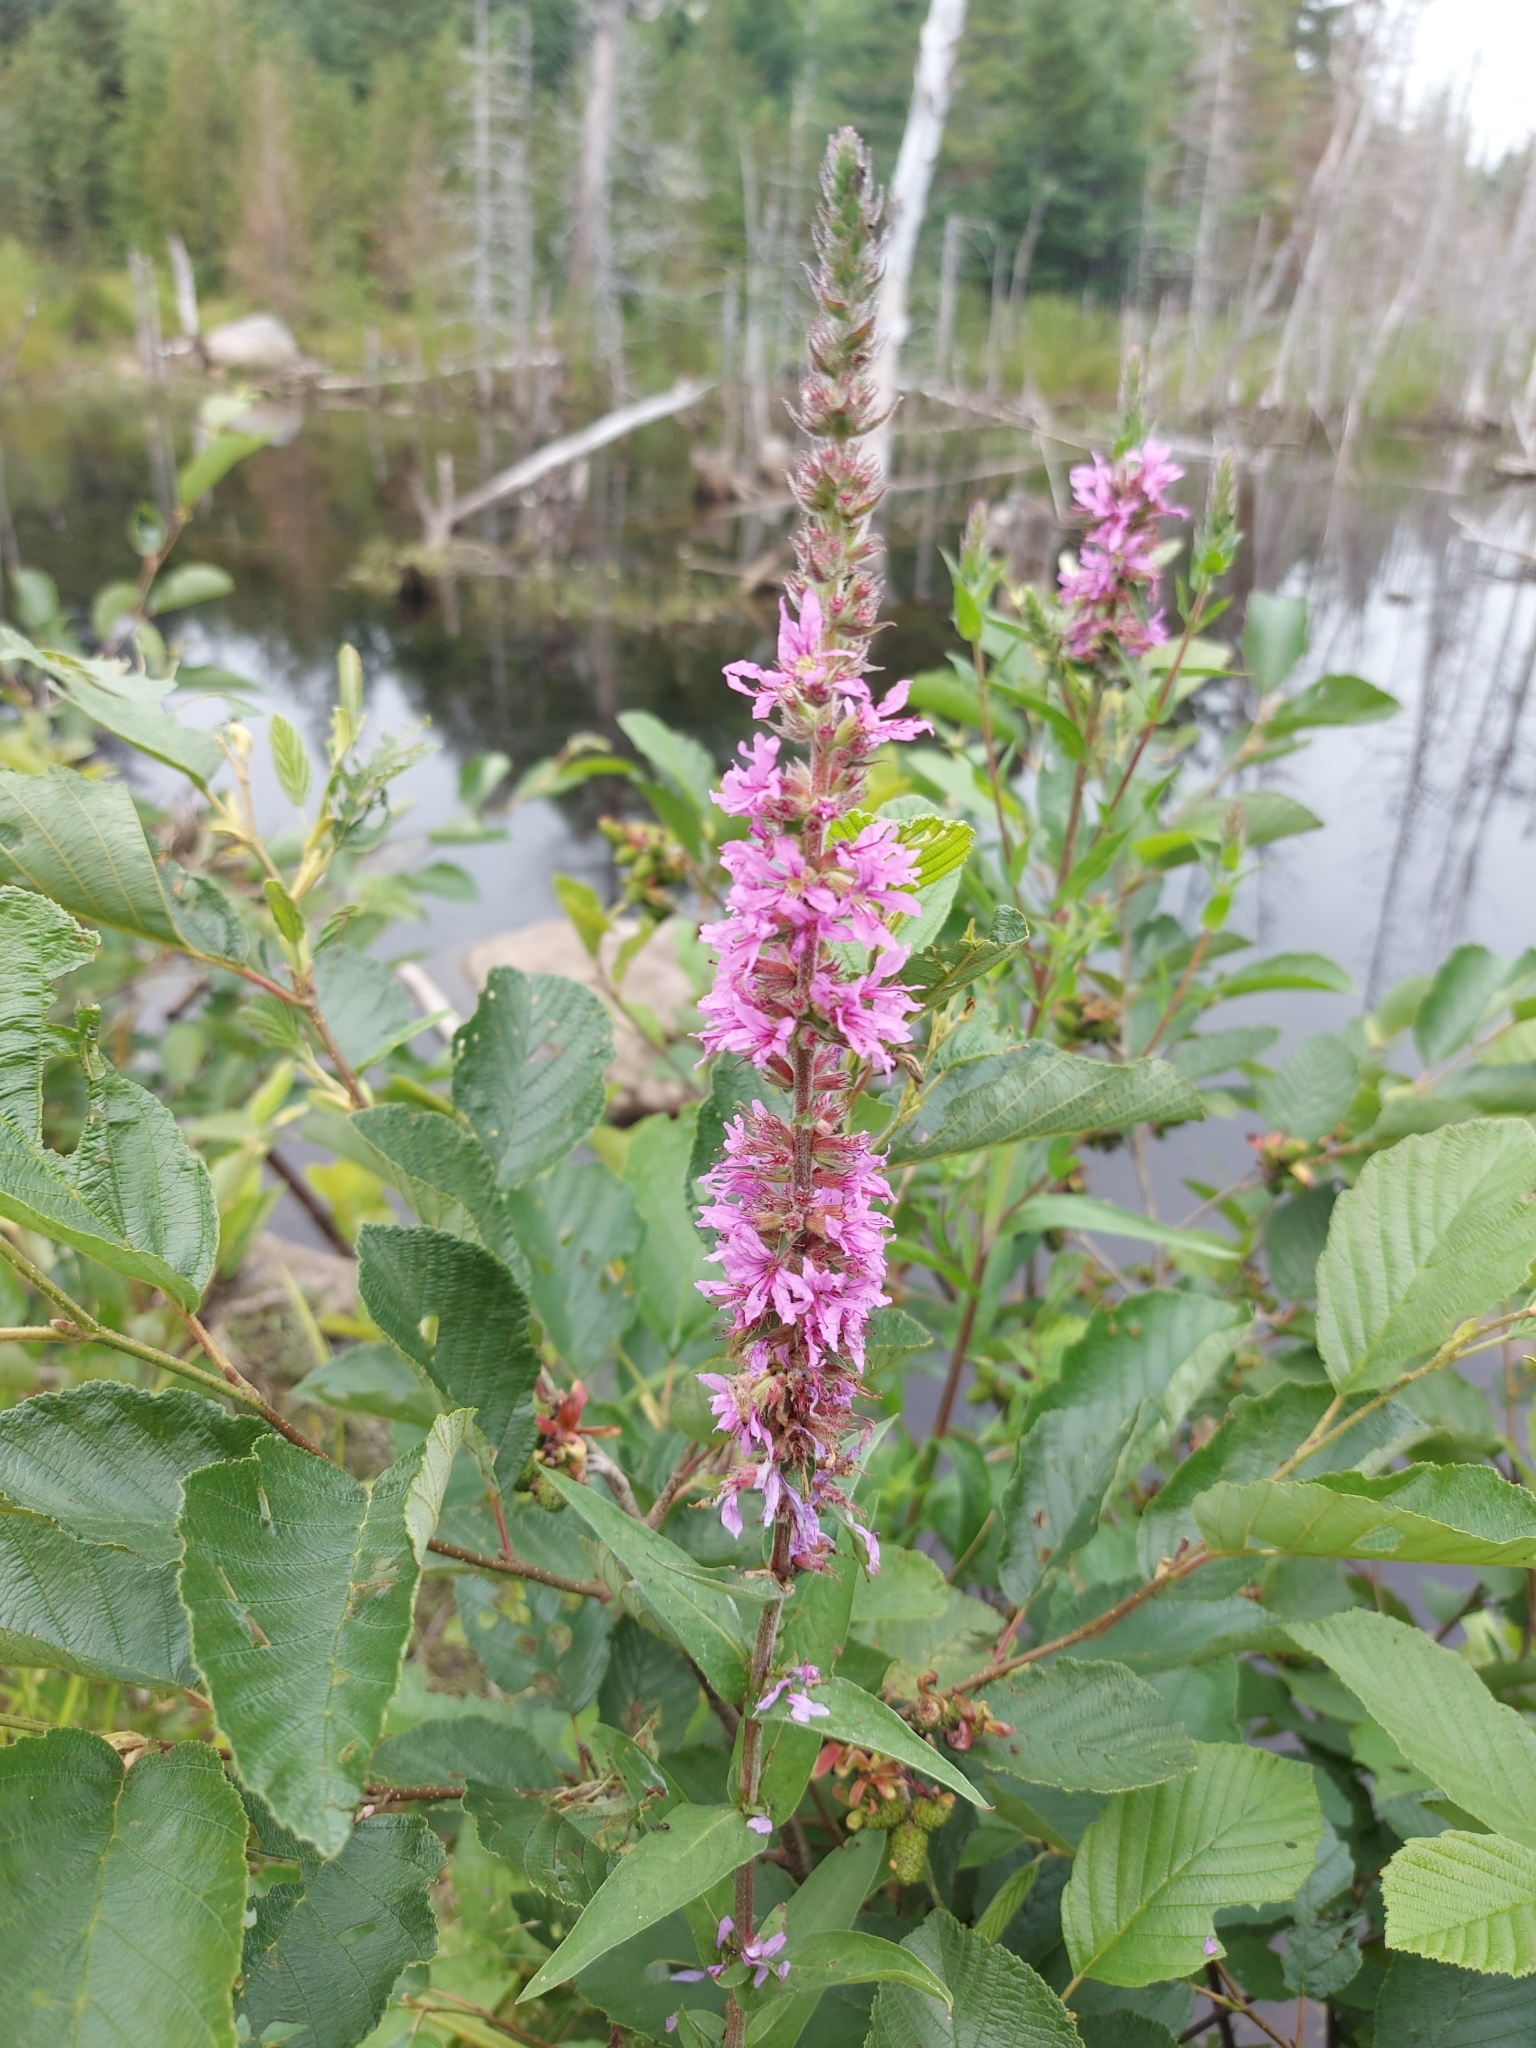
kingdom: Plantae
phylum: Tracheophyta
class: Magnoliopsida
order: Myrtales
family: Lythraceae
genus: Lythrum
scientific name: Lythrum salicaria
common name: Purple loosestrife
